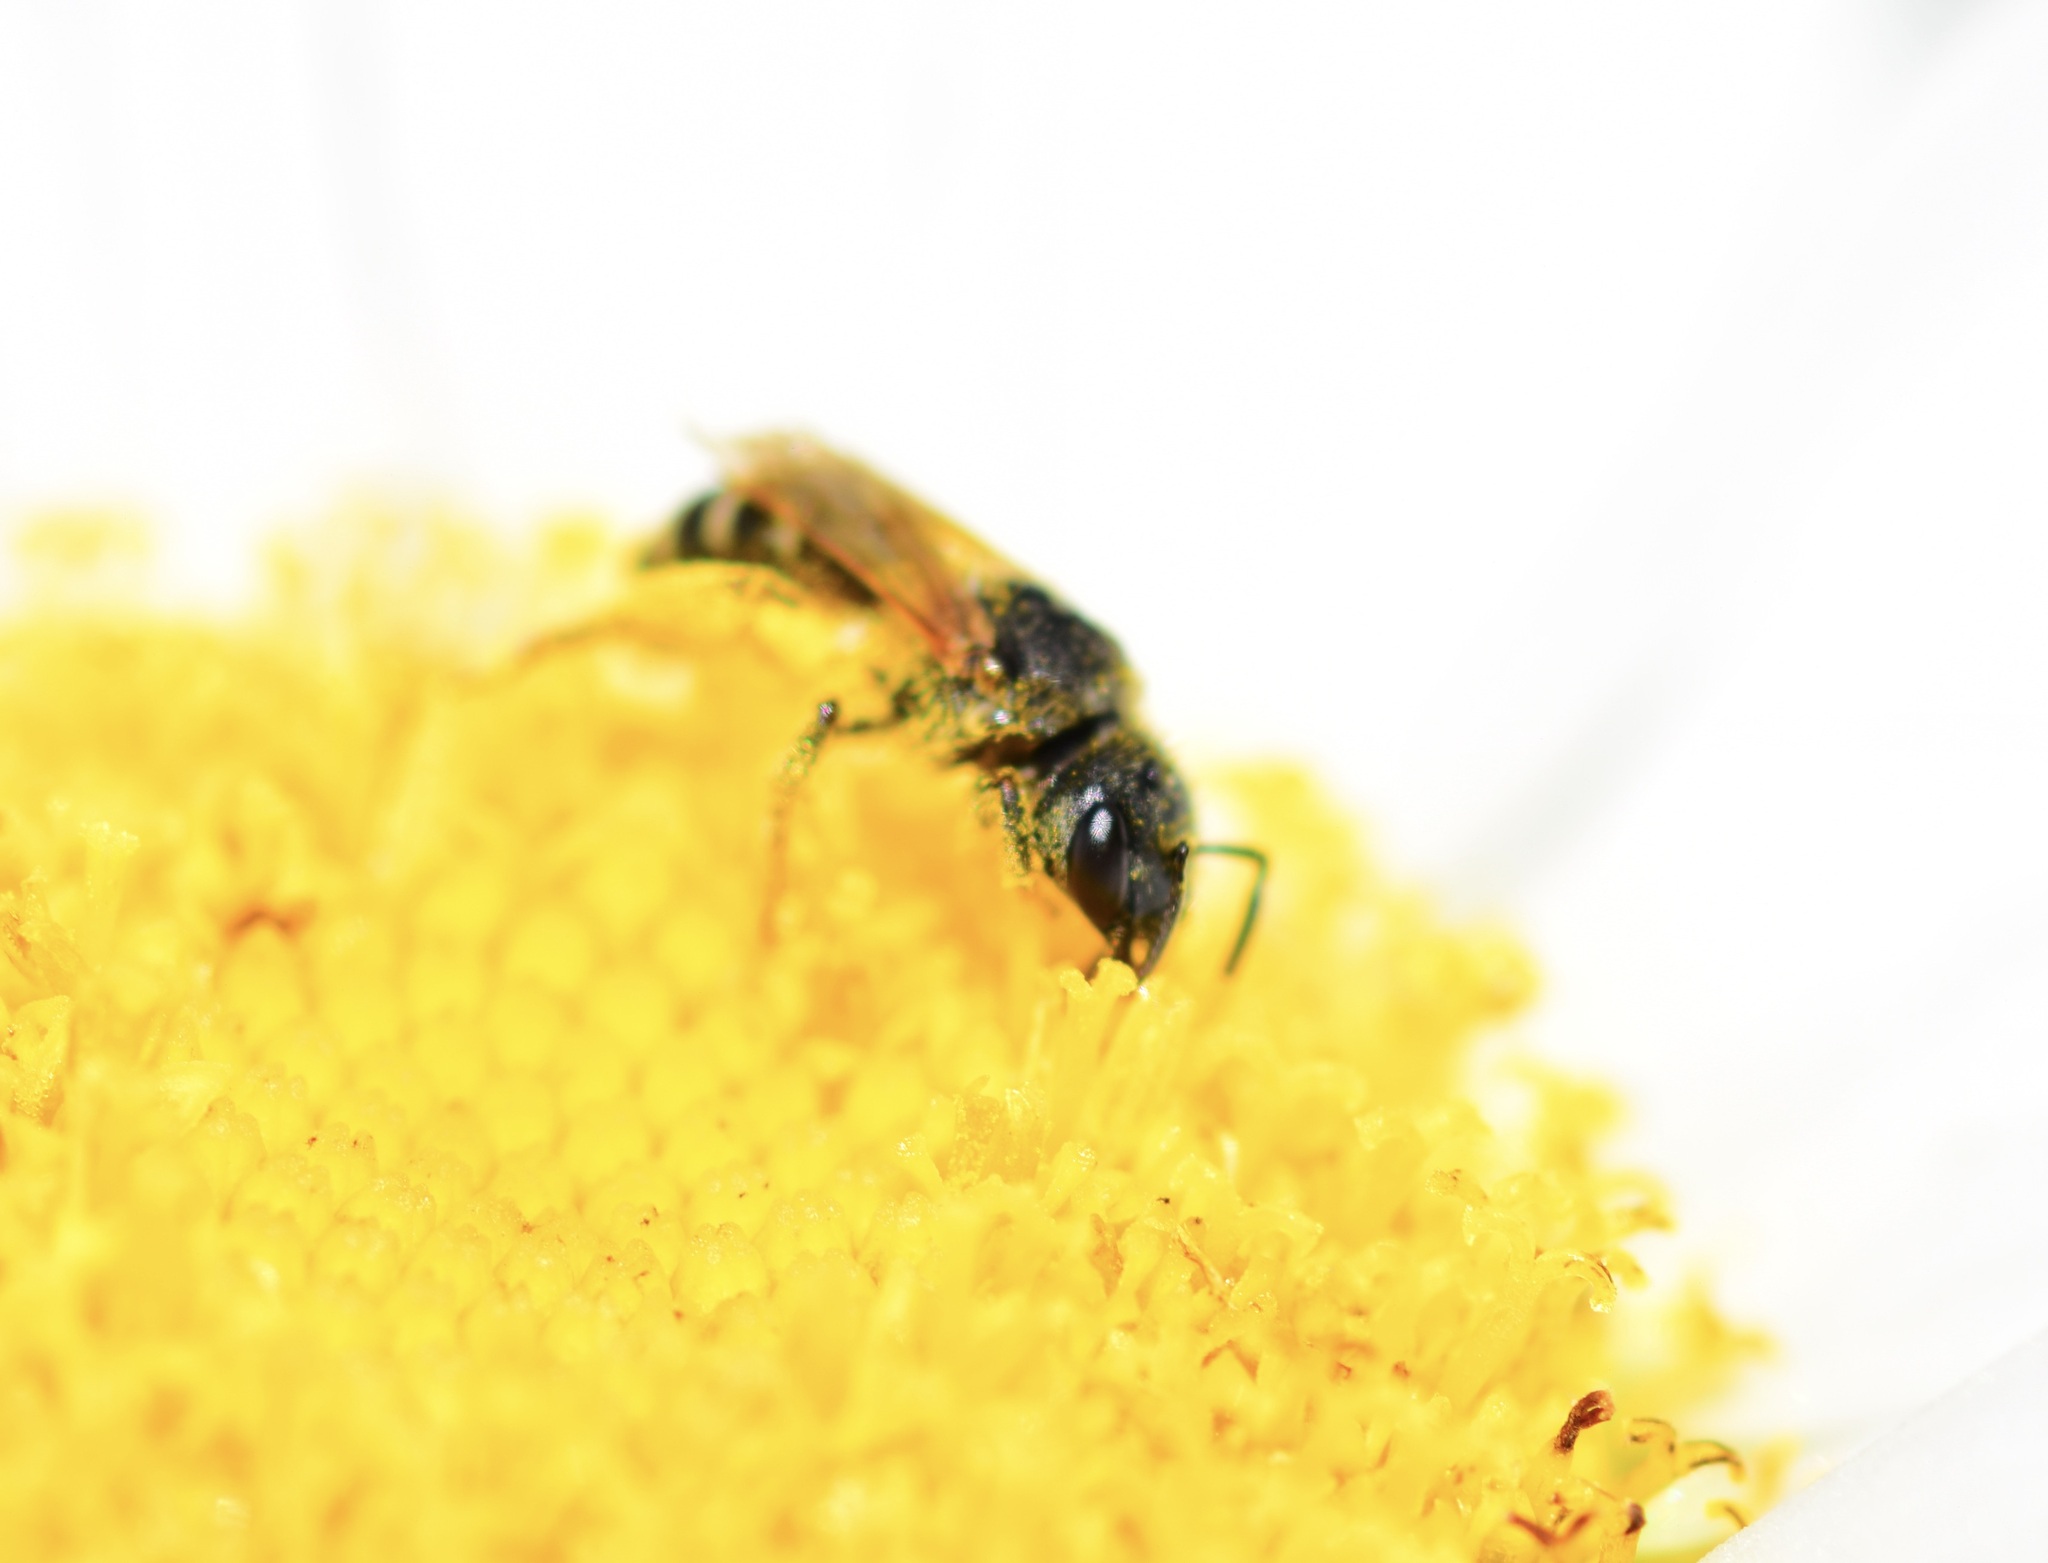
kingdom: Animalia
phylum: Arthropoda
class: Insecta
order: Hymenoptera
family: Halictidae
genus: Halictus
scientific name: Halictus ligatus
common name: Ligated furrow bee
